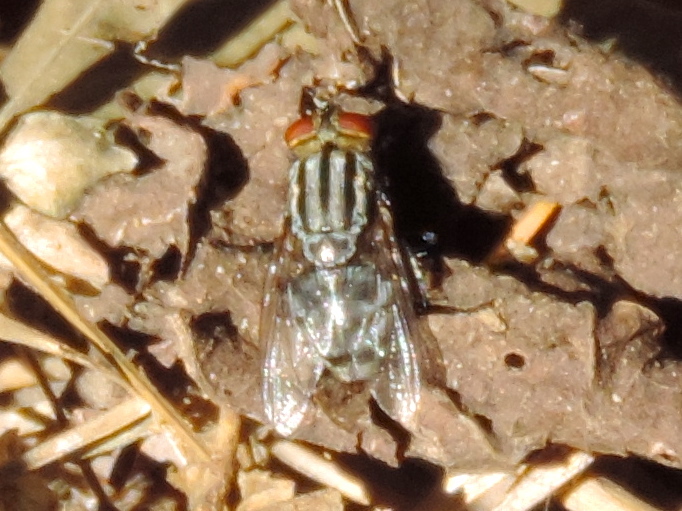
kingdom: Animalia
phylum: Arthropoda
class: Insecta
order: Diptera
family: Sarcophagidae
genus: Sarcophaga
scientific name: Sarcophaga
